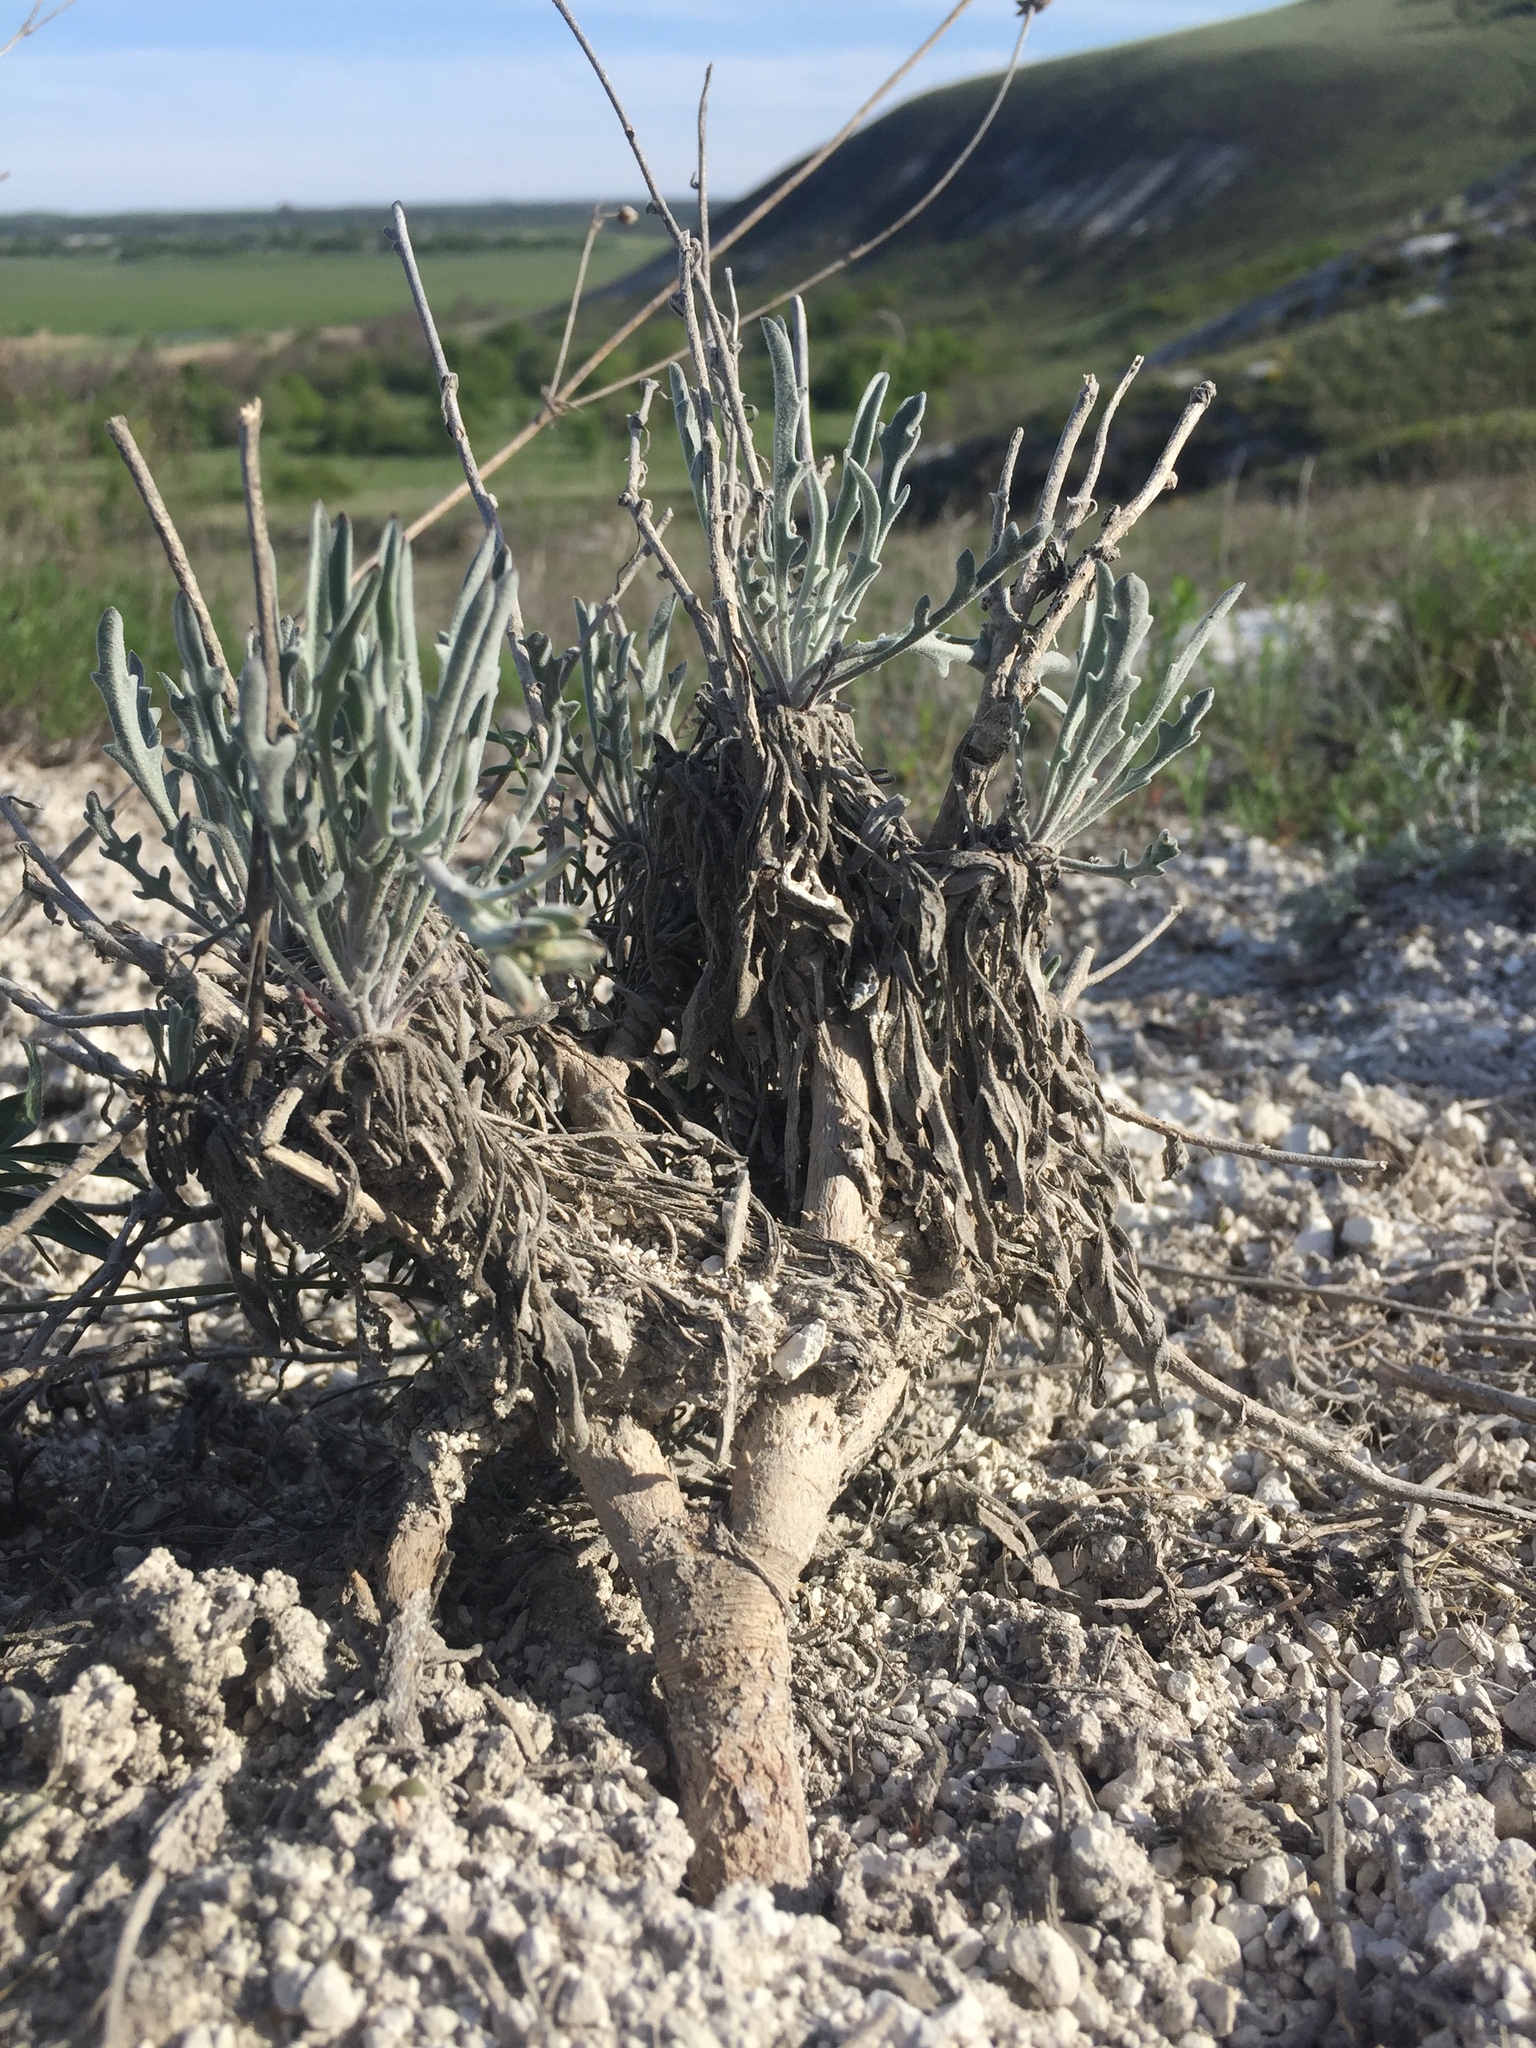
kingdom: Plantae
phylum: Tracheophyta
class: Magnoliopsida
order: Brassicales
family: Brassicaceae
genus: Matthiola
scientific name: Matthiola fragrans
